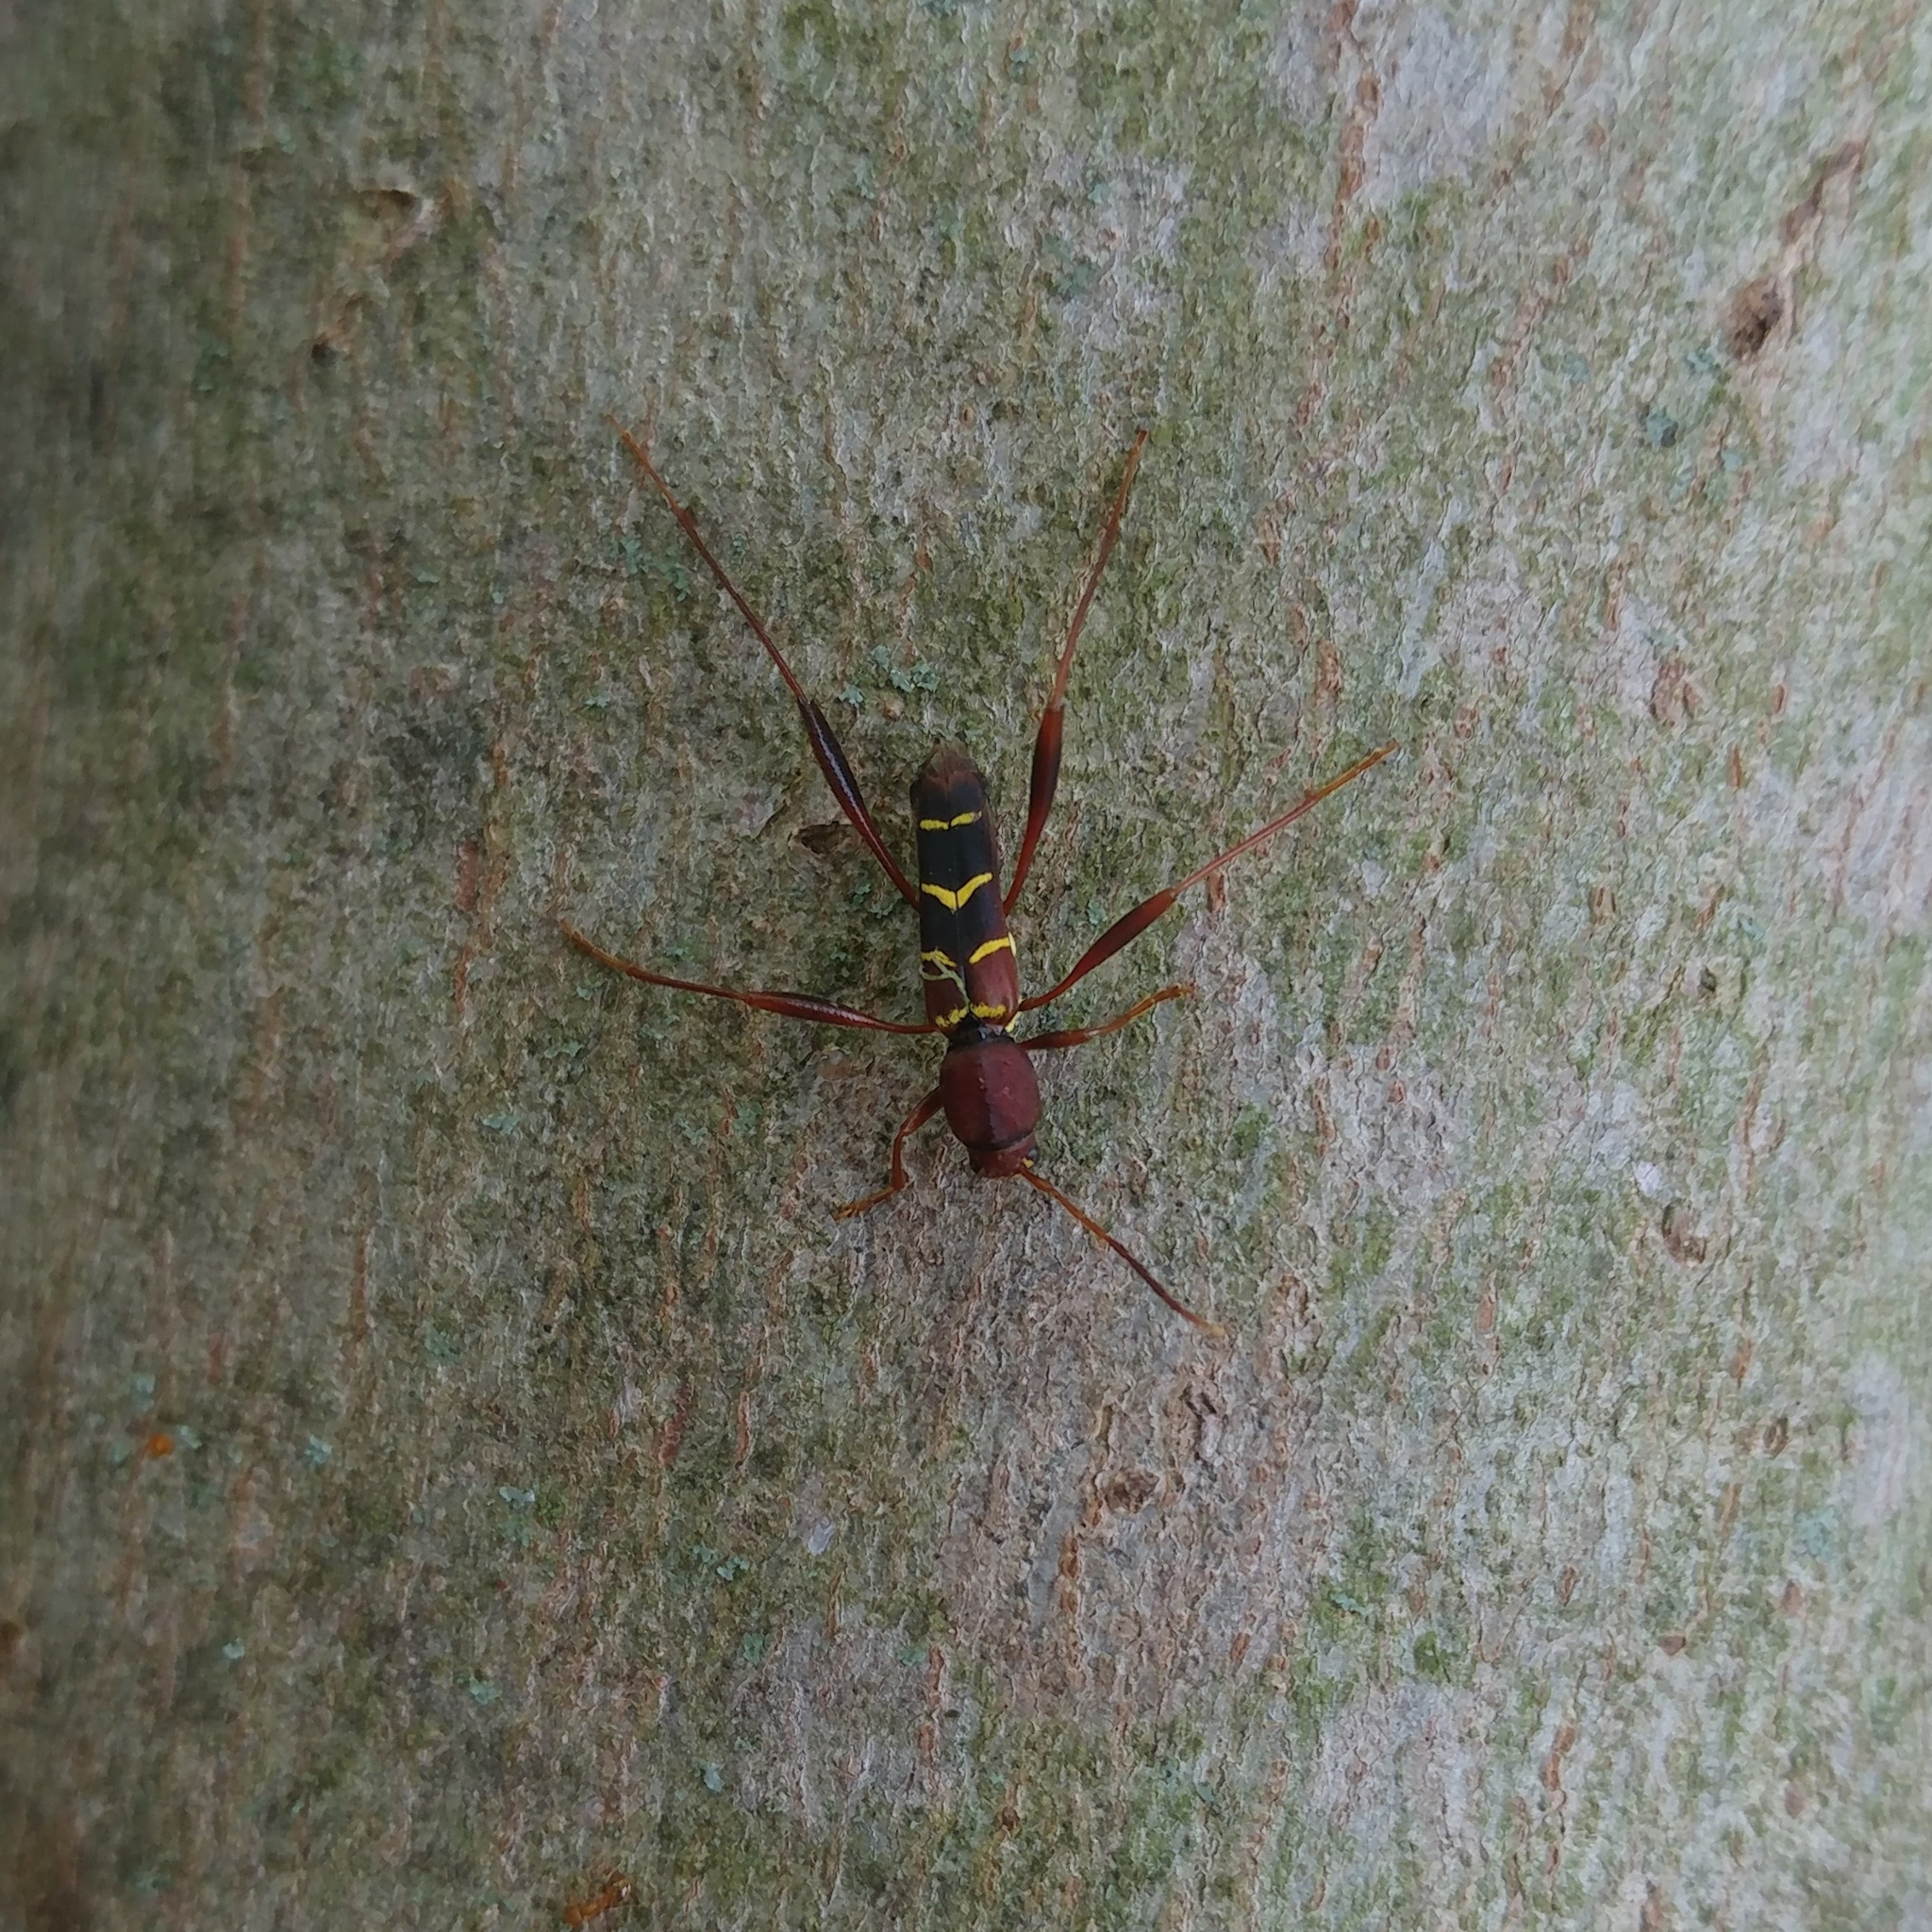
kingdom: Animalia
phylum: Arthropoda
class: Insecta
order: Coleoptera
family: Cerambycidae
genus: Neoclytus
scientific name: Neoclytus acuminatus
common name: Read-headed ash borer
